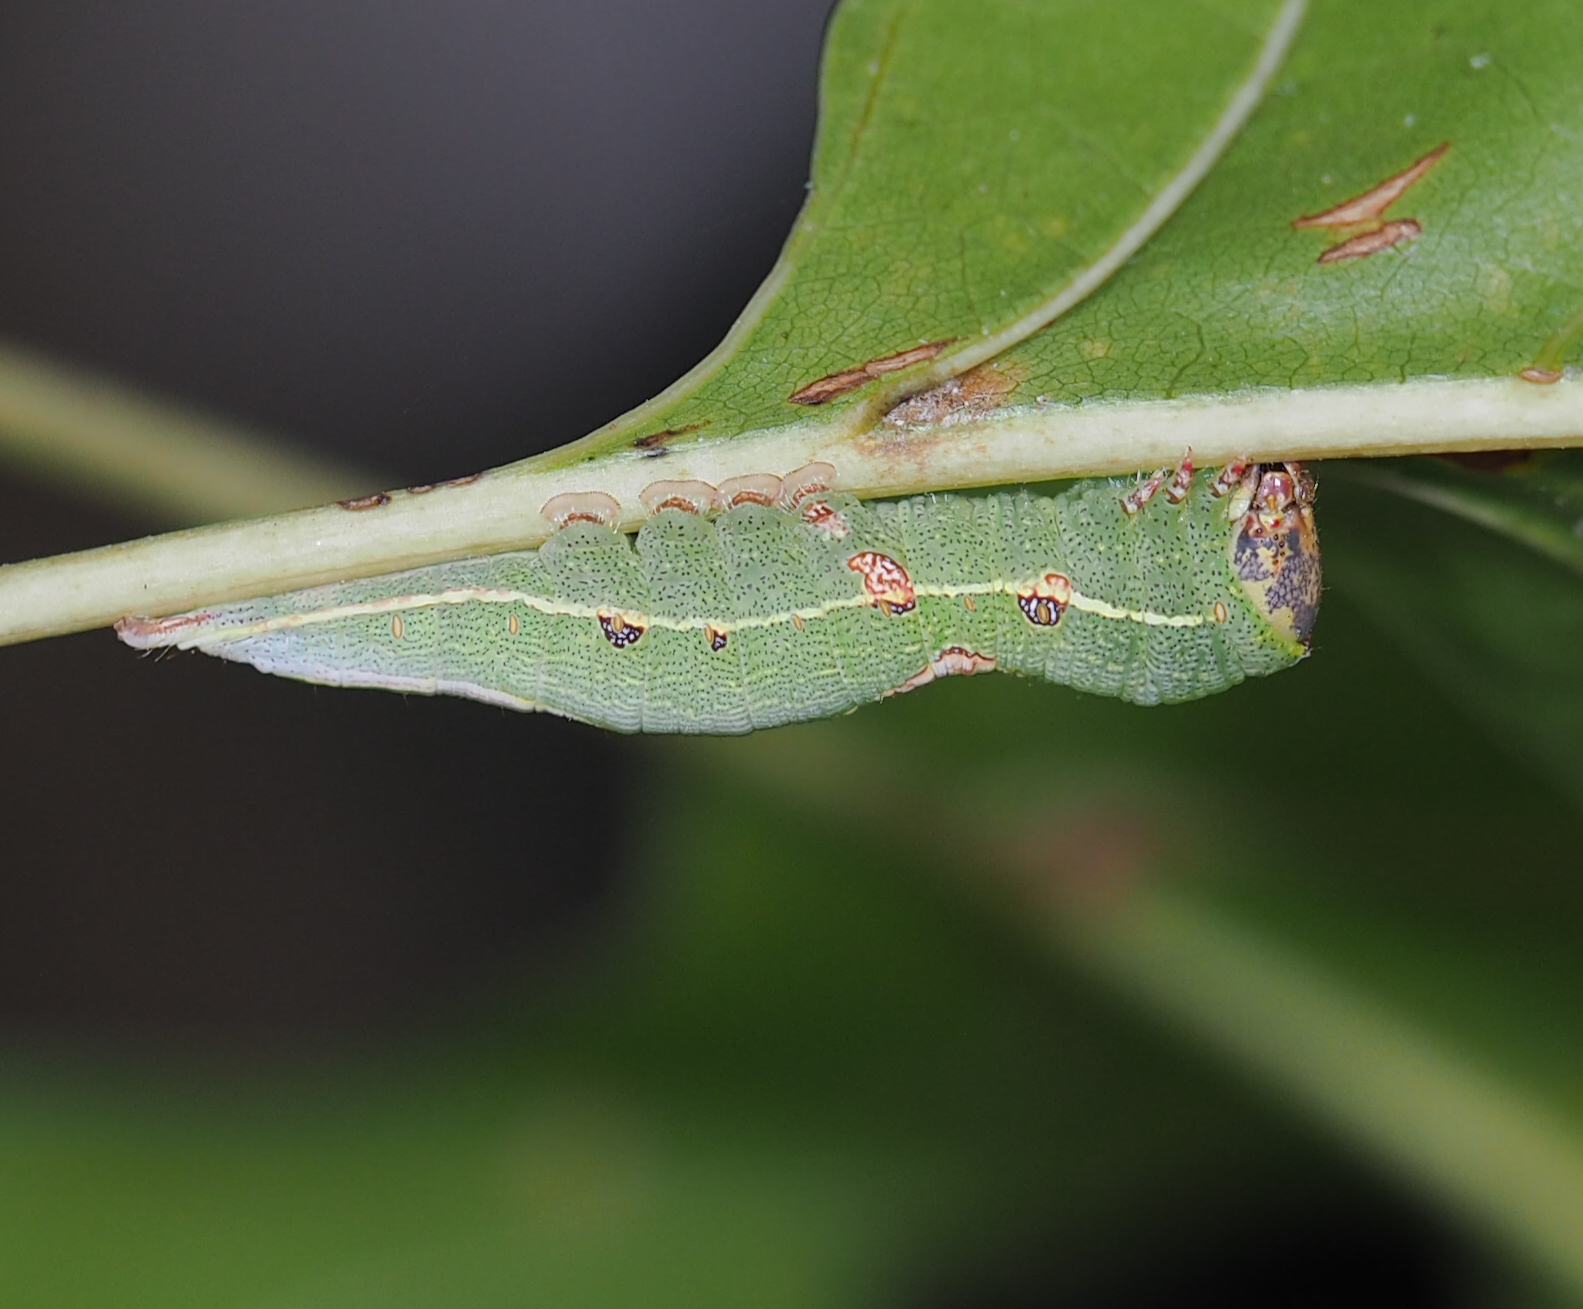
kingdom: Animalia
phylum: Arthropoda
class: Insecta
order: Lepidoptera
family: Notodontidae
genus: Heterocampa
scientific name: Heterocampa obliqua
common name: Oblique heterocampa
